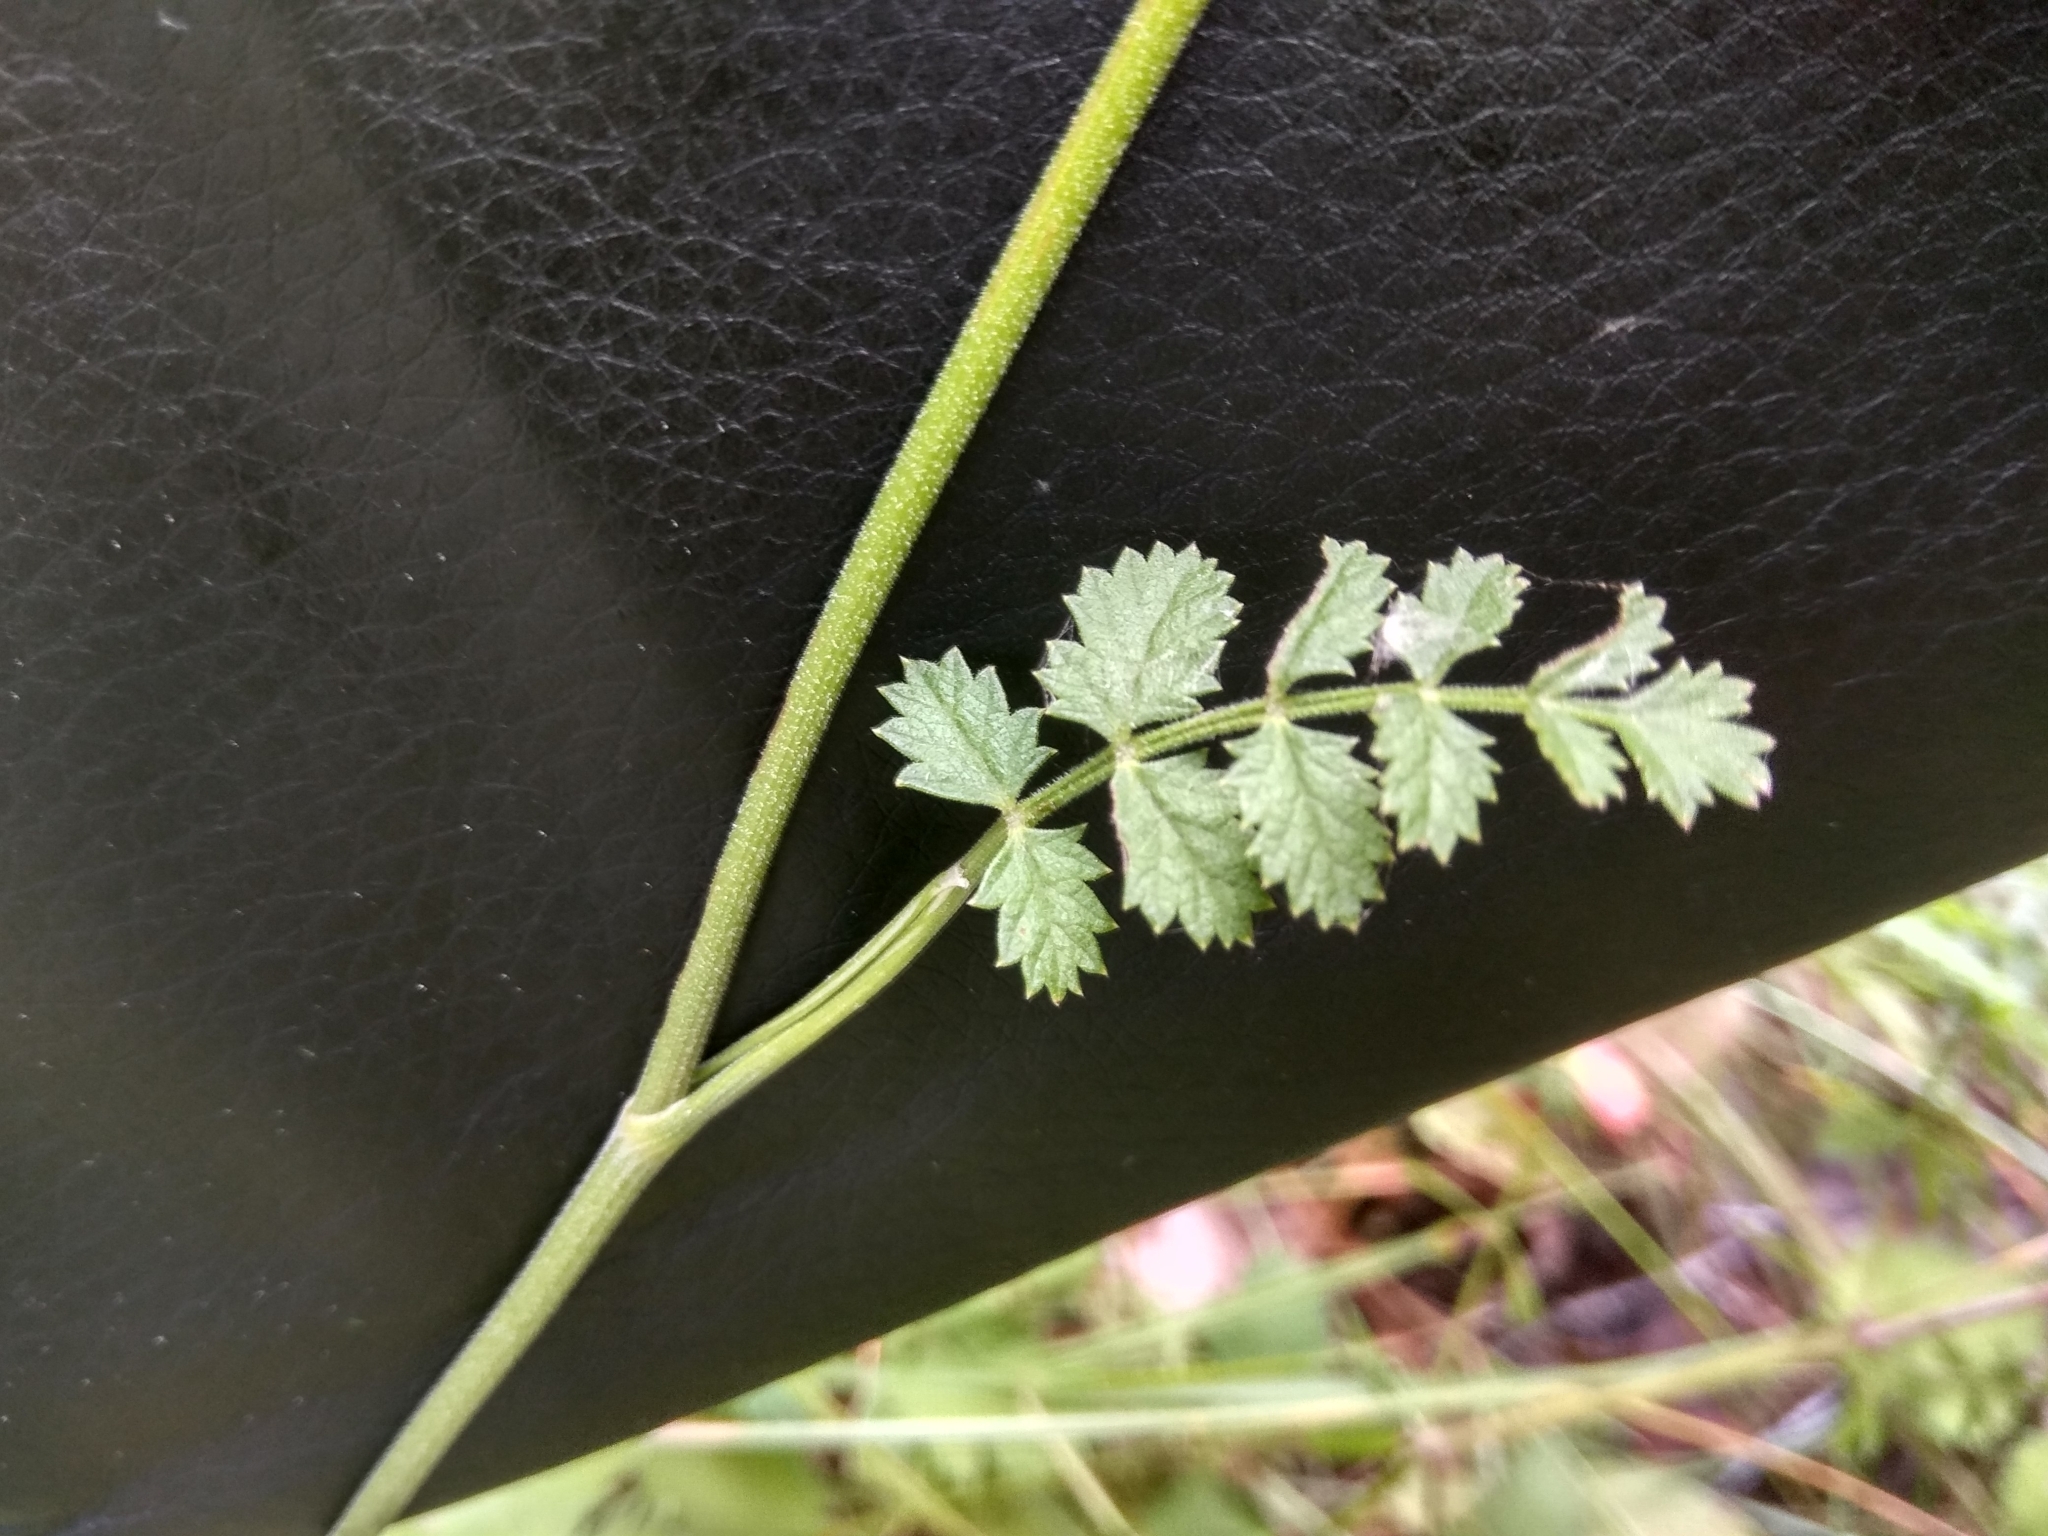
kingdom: Plantae
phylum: Tracheophyta
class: Magnoliopsida
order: Apiales
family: Apiaceae
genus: Pimpinella
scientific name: Pimpinella saxifraga
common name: Burnet-saxifrage
